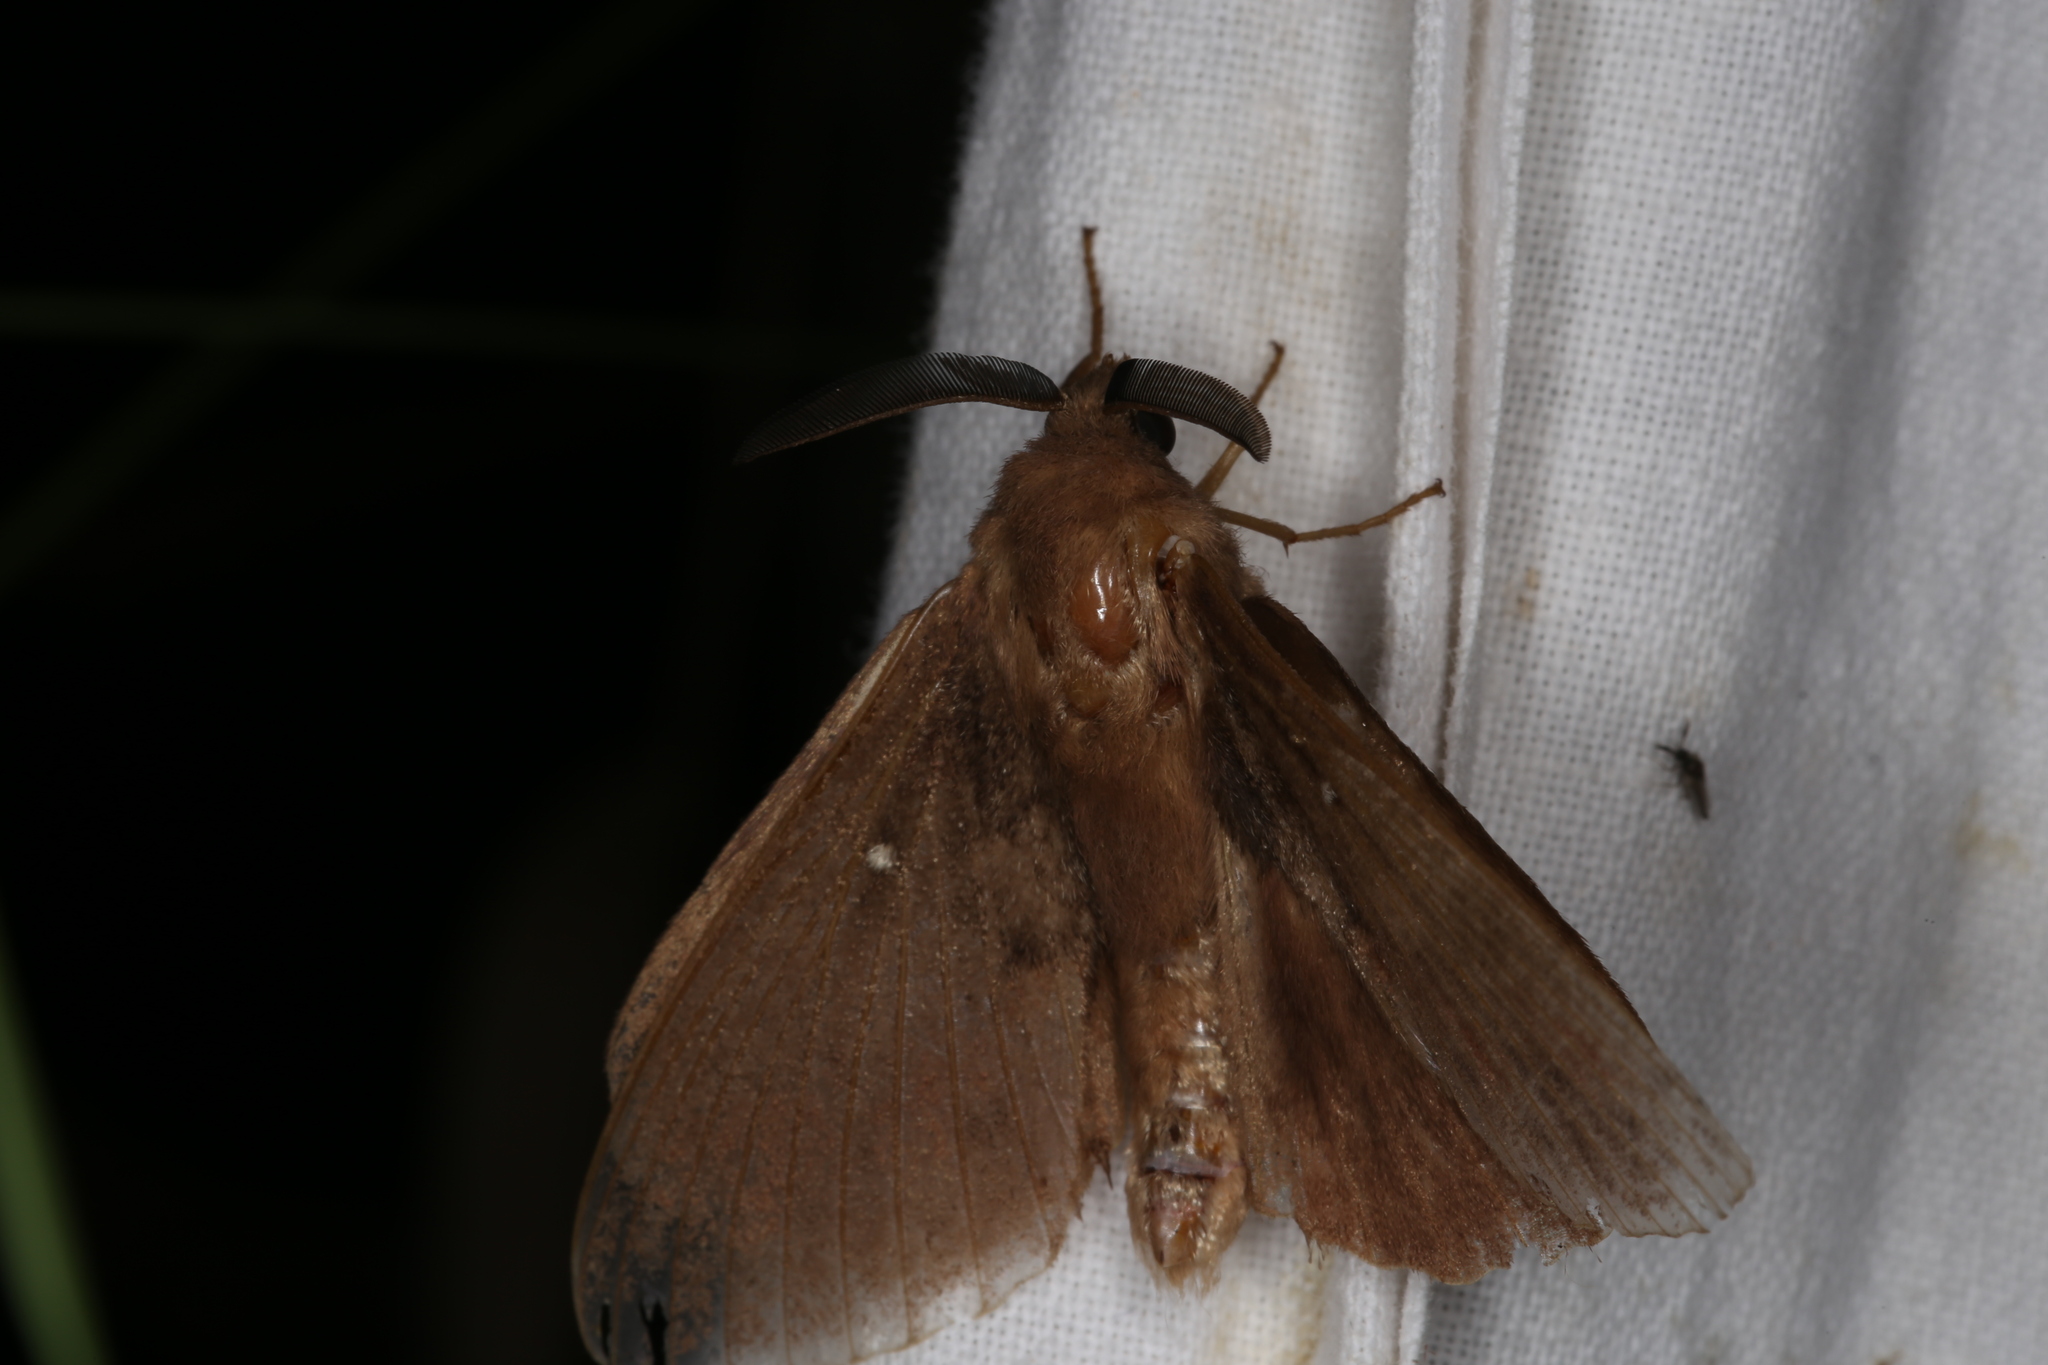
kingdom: Animalia
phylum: Arthropoda
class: Insecta
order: Lepidoptera
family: Lasiocampidae
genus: Dendrolimus
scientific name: Dendrolimus pini
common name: Pine-tree lappet
